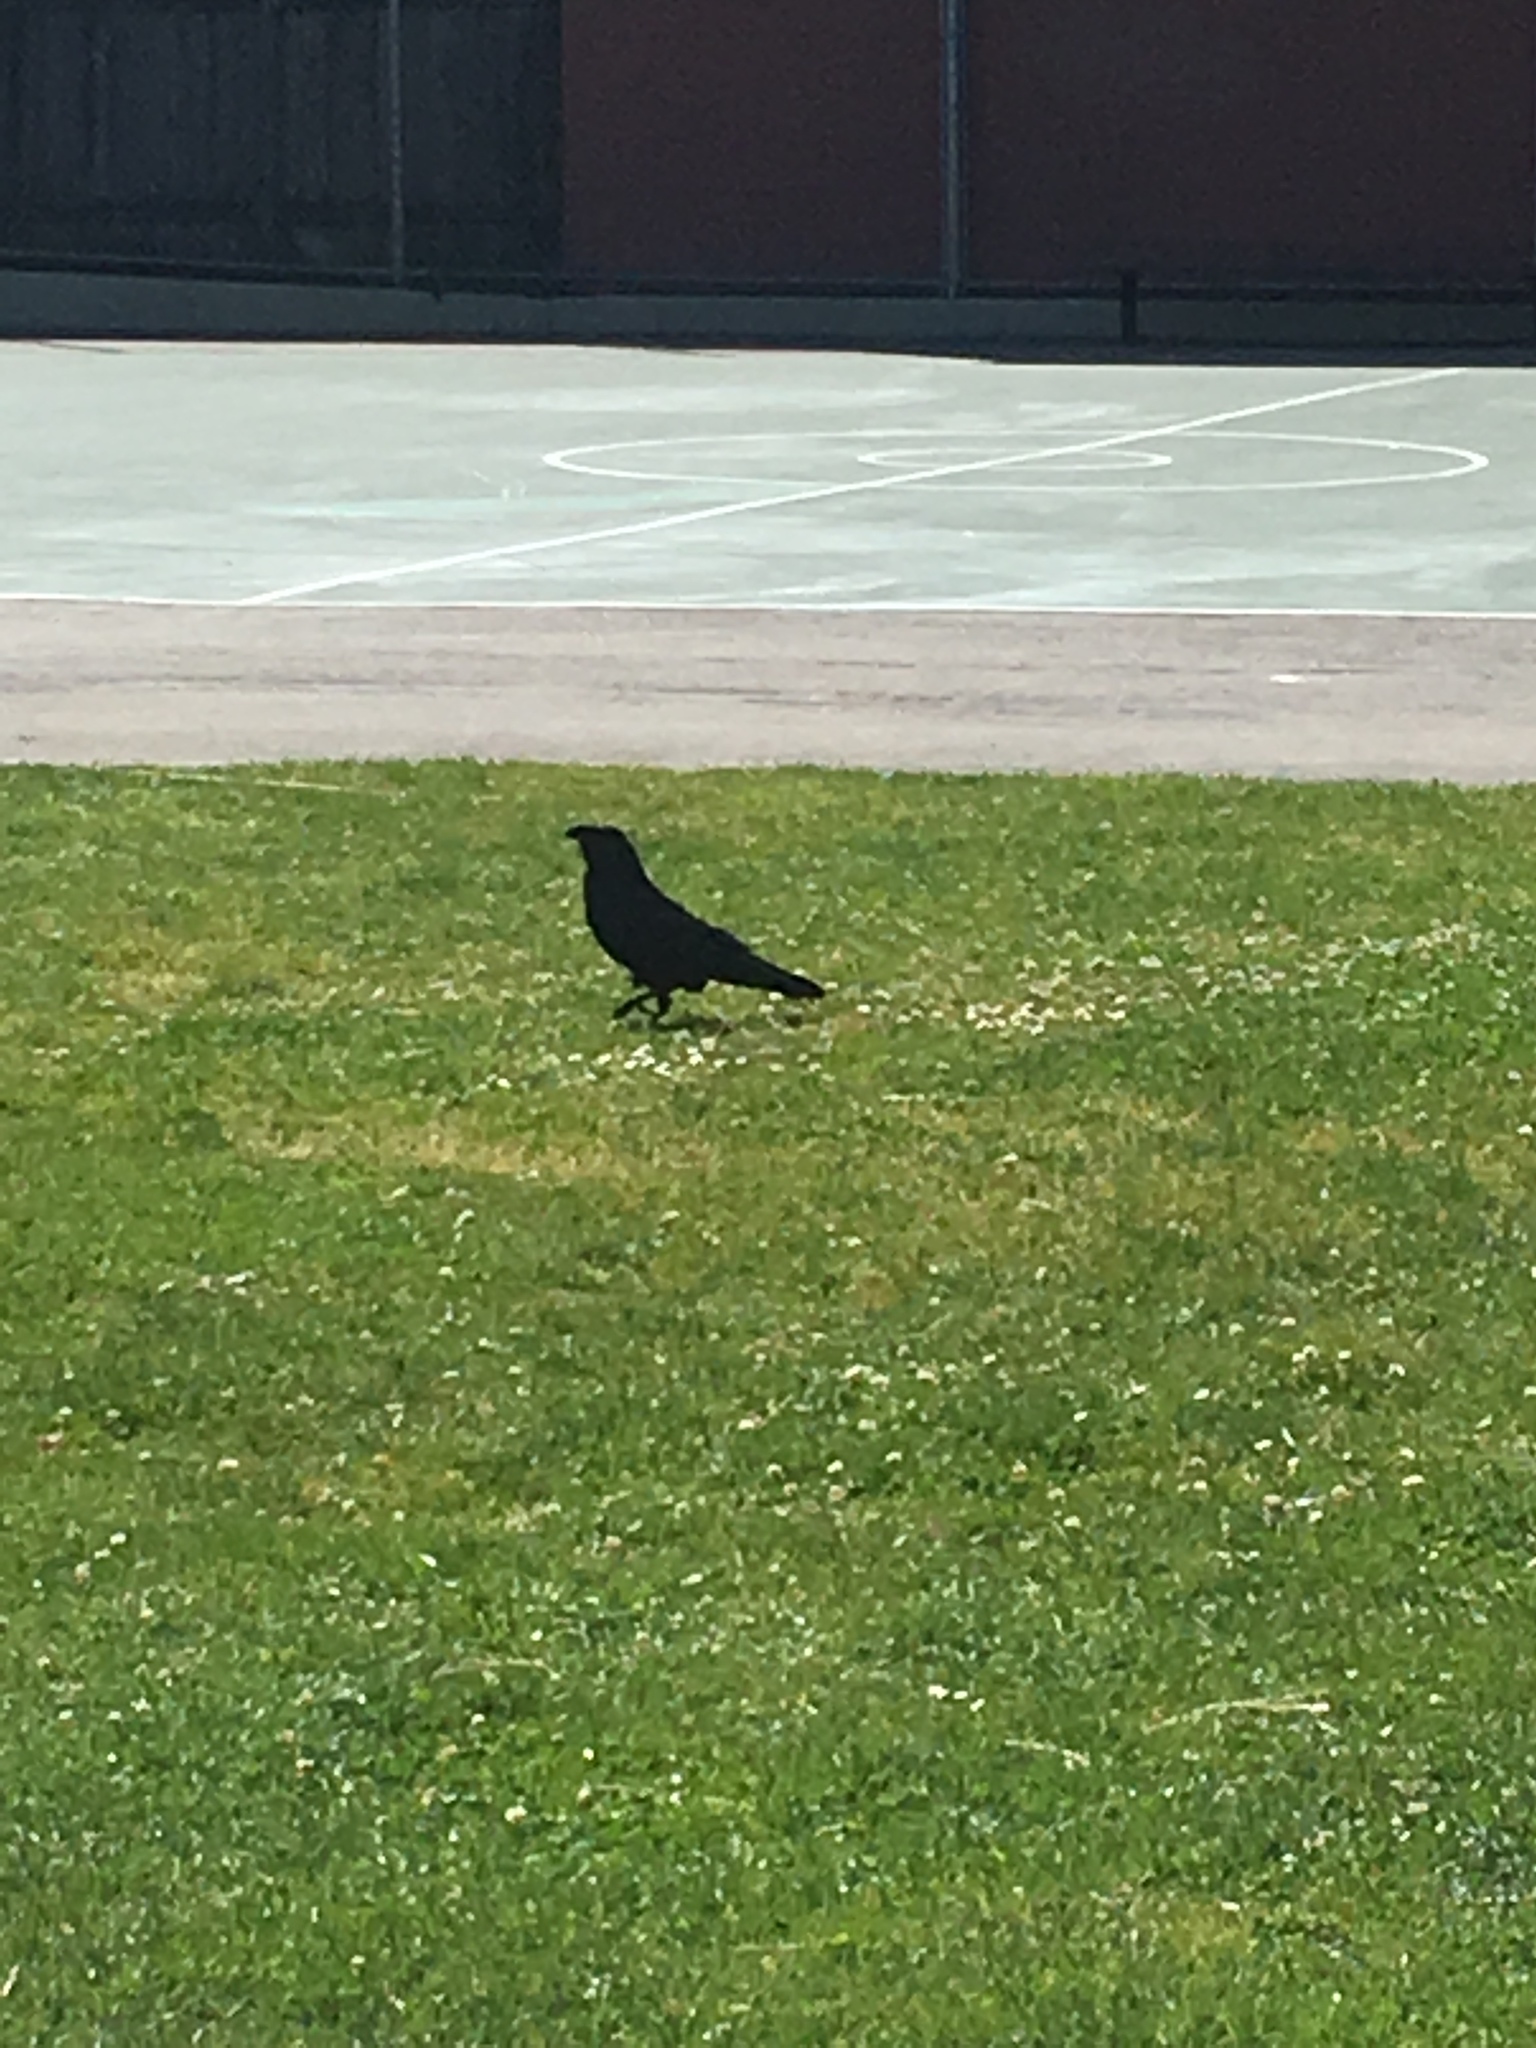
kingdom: Animalia
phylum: Chordata
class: Aves
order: Passeriformes
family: Corvidae
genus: Corvus
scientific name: Corvus brachyrhynchos
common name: American crow
